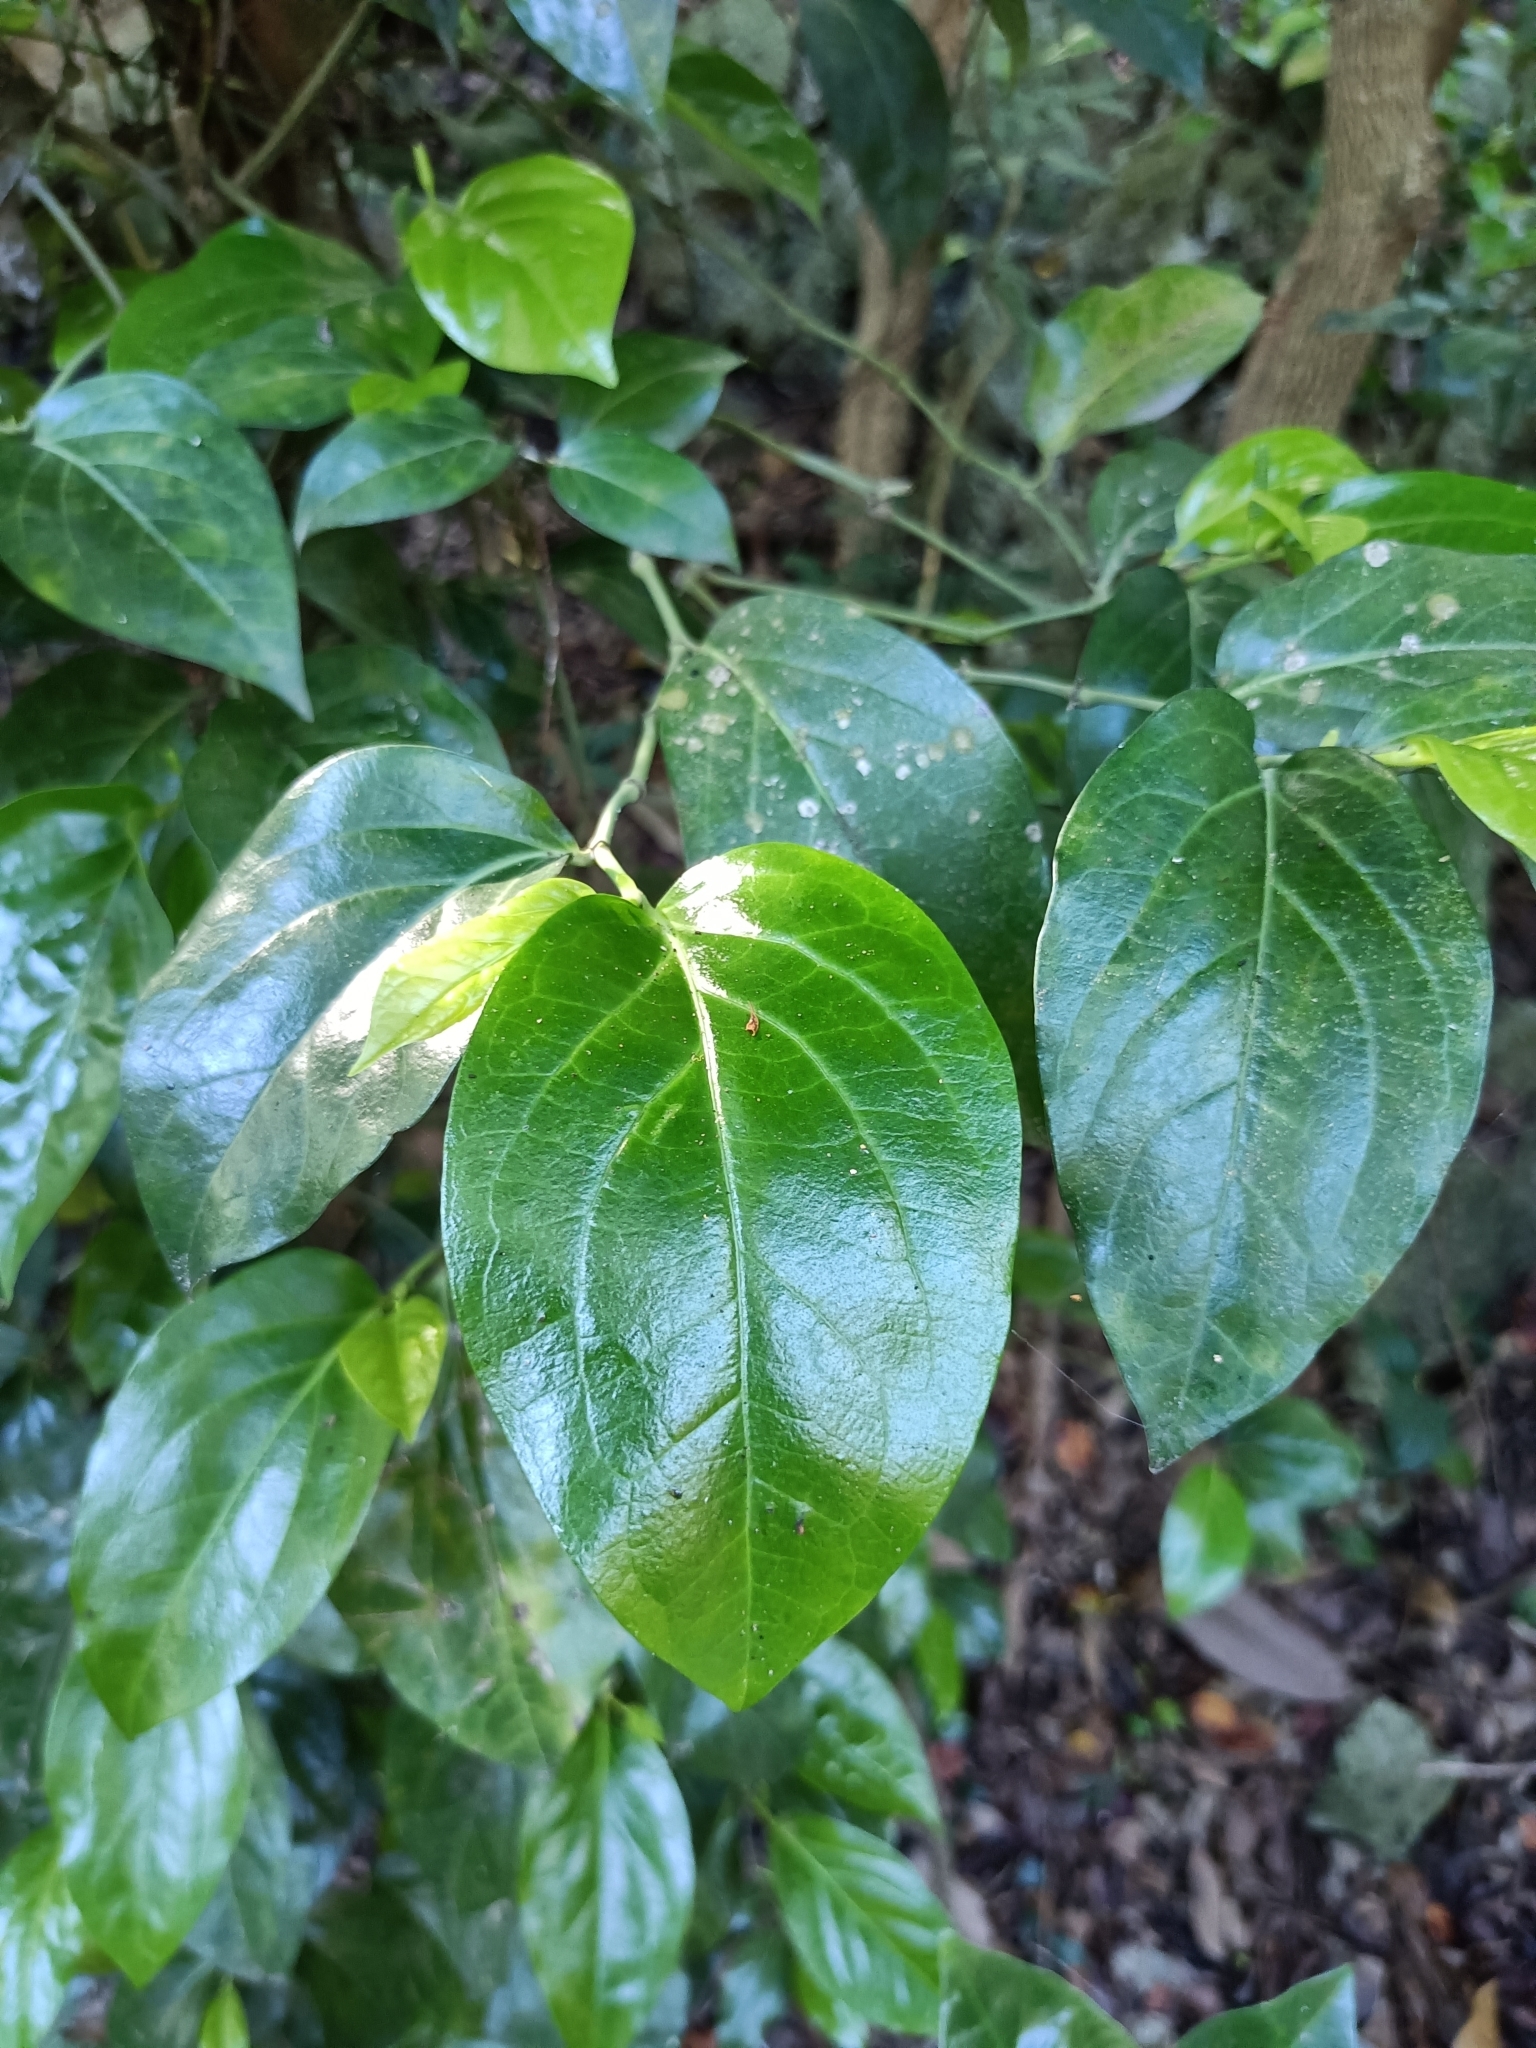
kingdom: Plantae
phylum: Tracheophyta
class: Magnoliopsida
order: Piperales
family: Piperaceae
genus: Piper
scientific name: Piper kawakamii
